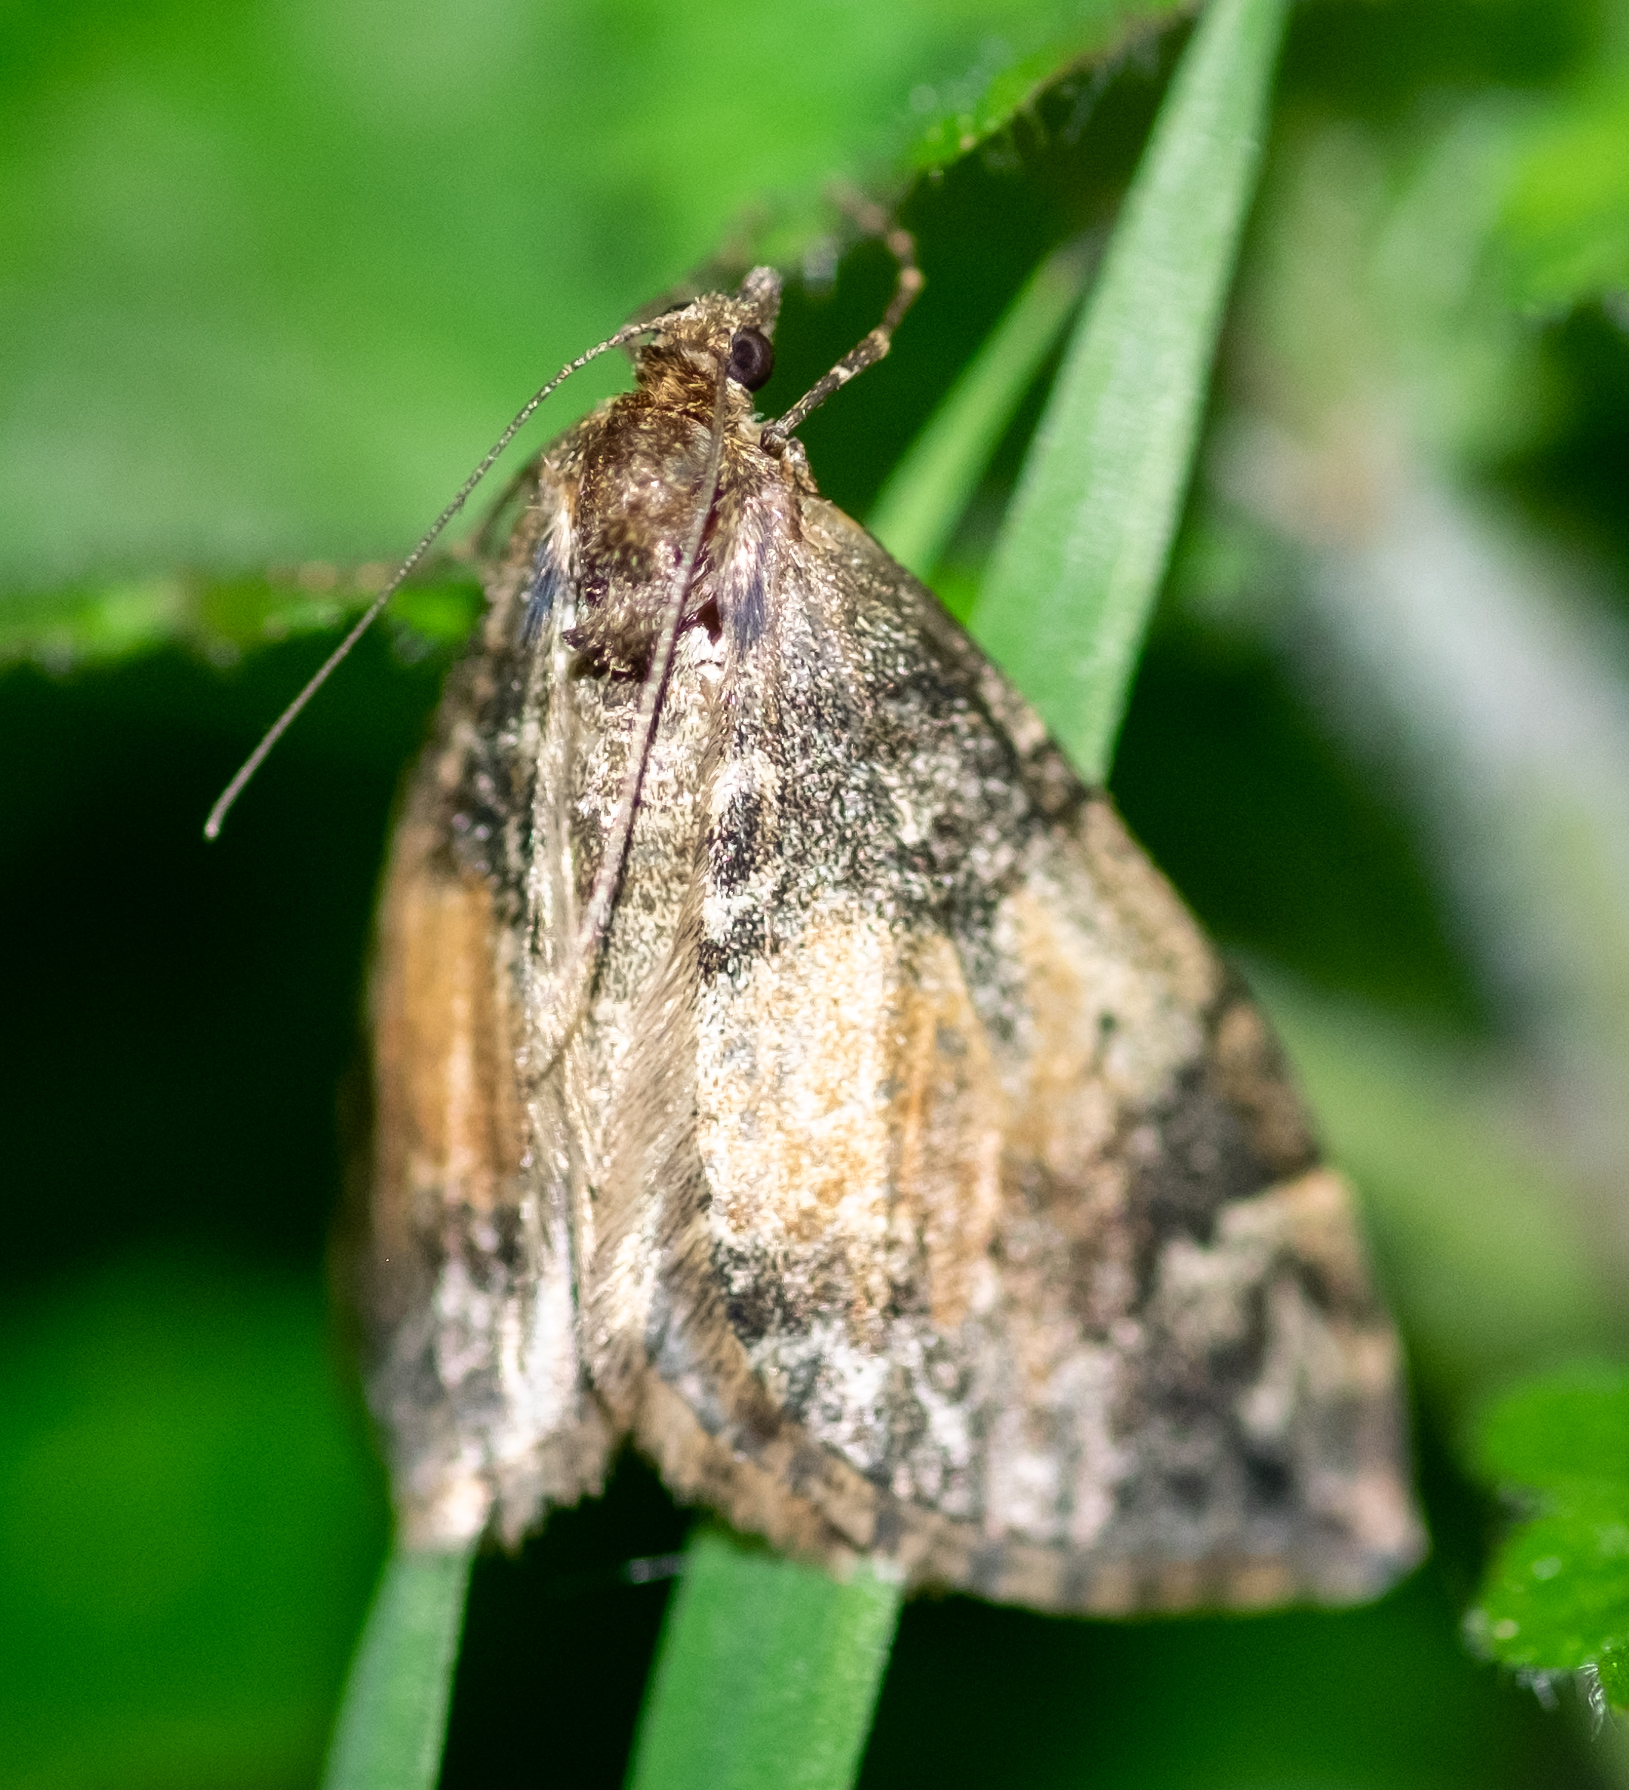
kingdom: Animalia
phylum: Arthropoda
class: Insecta
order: Lepidoptera
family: Geometridae
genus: Dysstroma
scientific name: Dysstroma truncata
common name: Common marbled carpet
